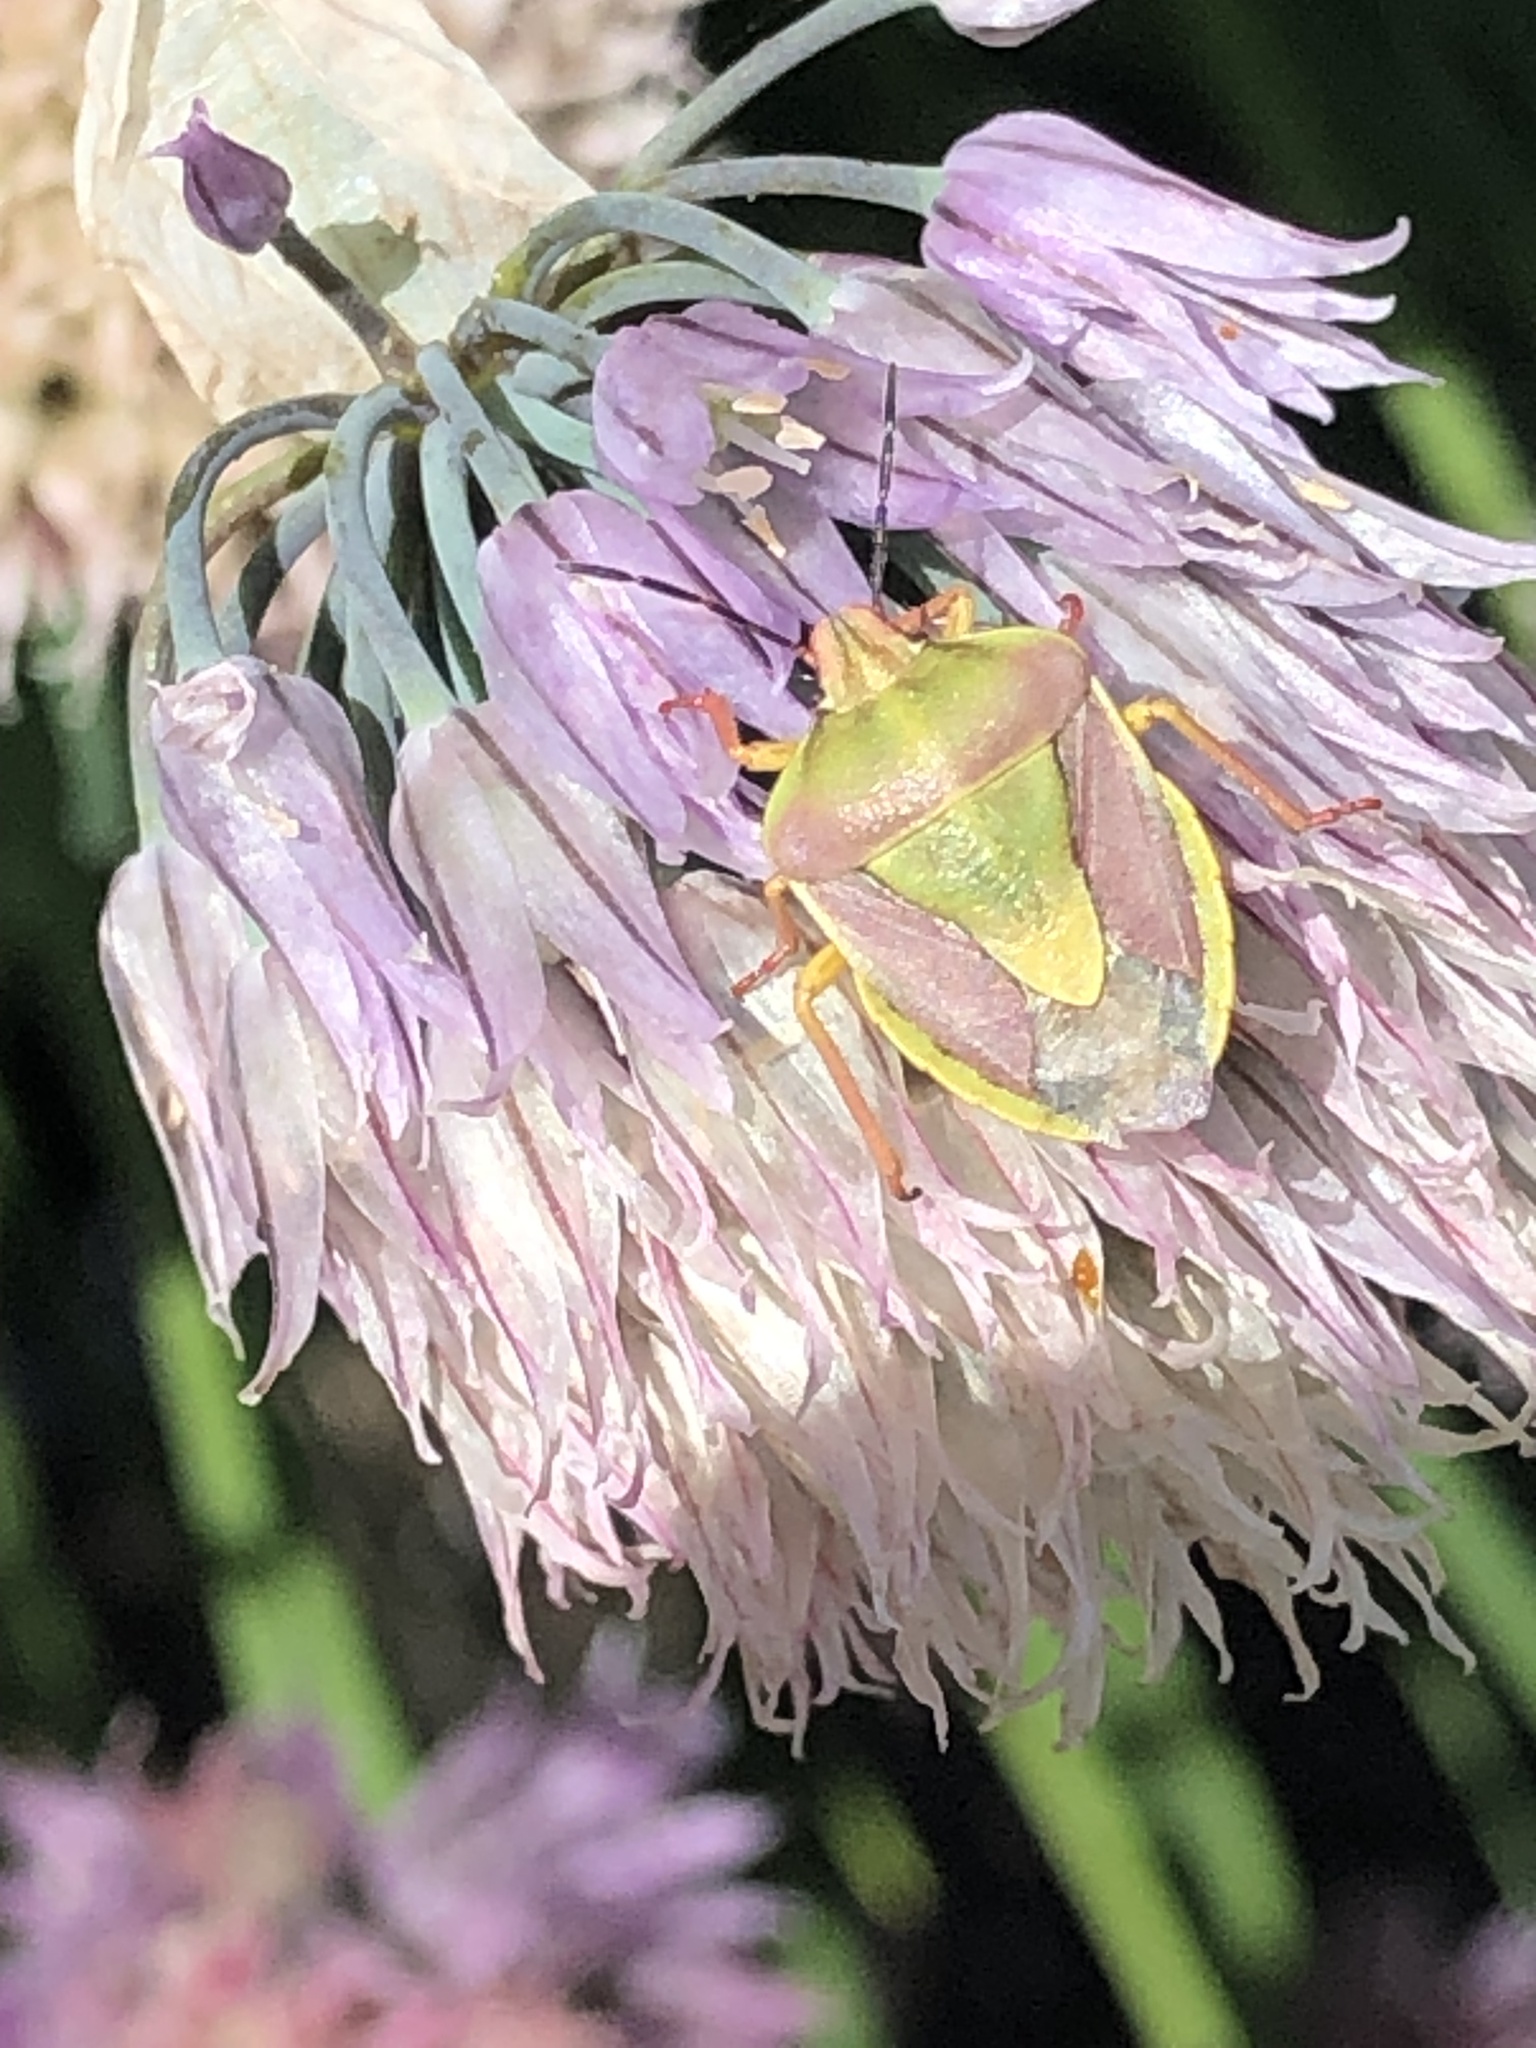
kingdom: Animalia
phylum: Arthropoda
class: Insecta
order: Hemiptera
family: Pentatomidae
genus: Antheminia
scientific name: Antheminia
